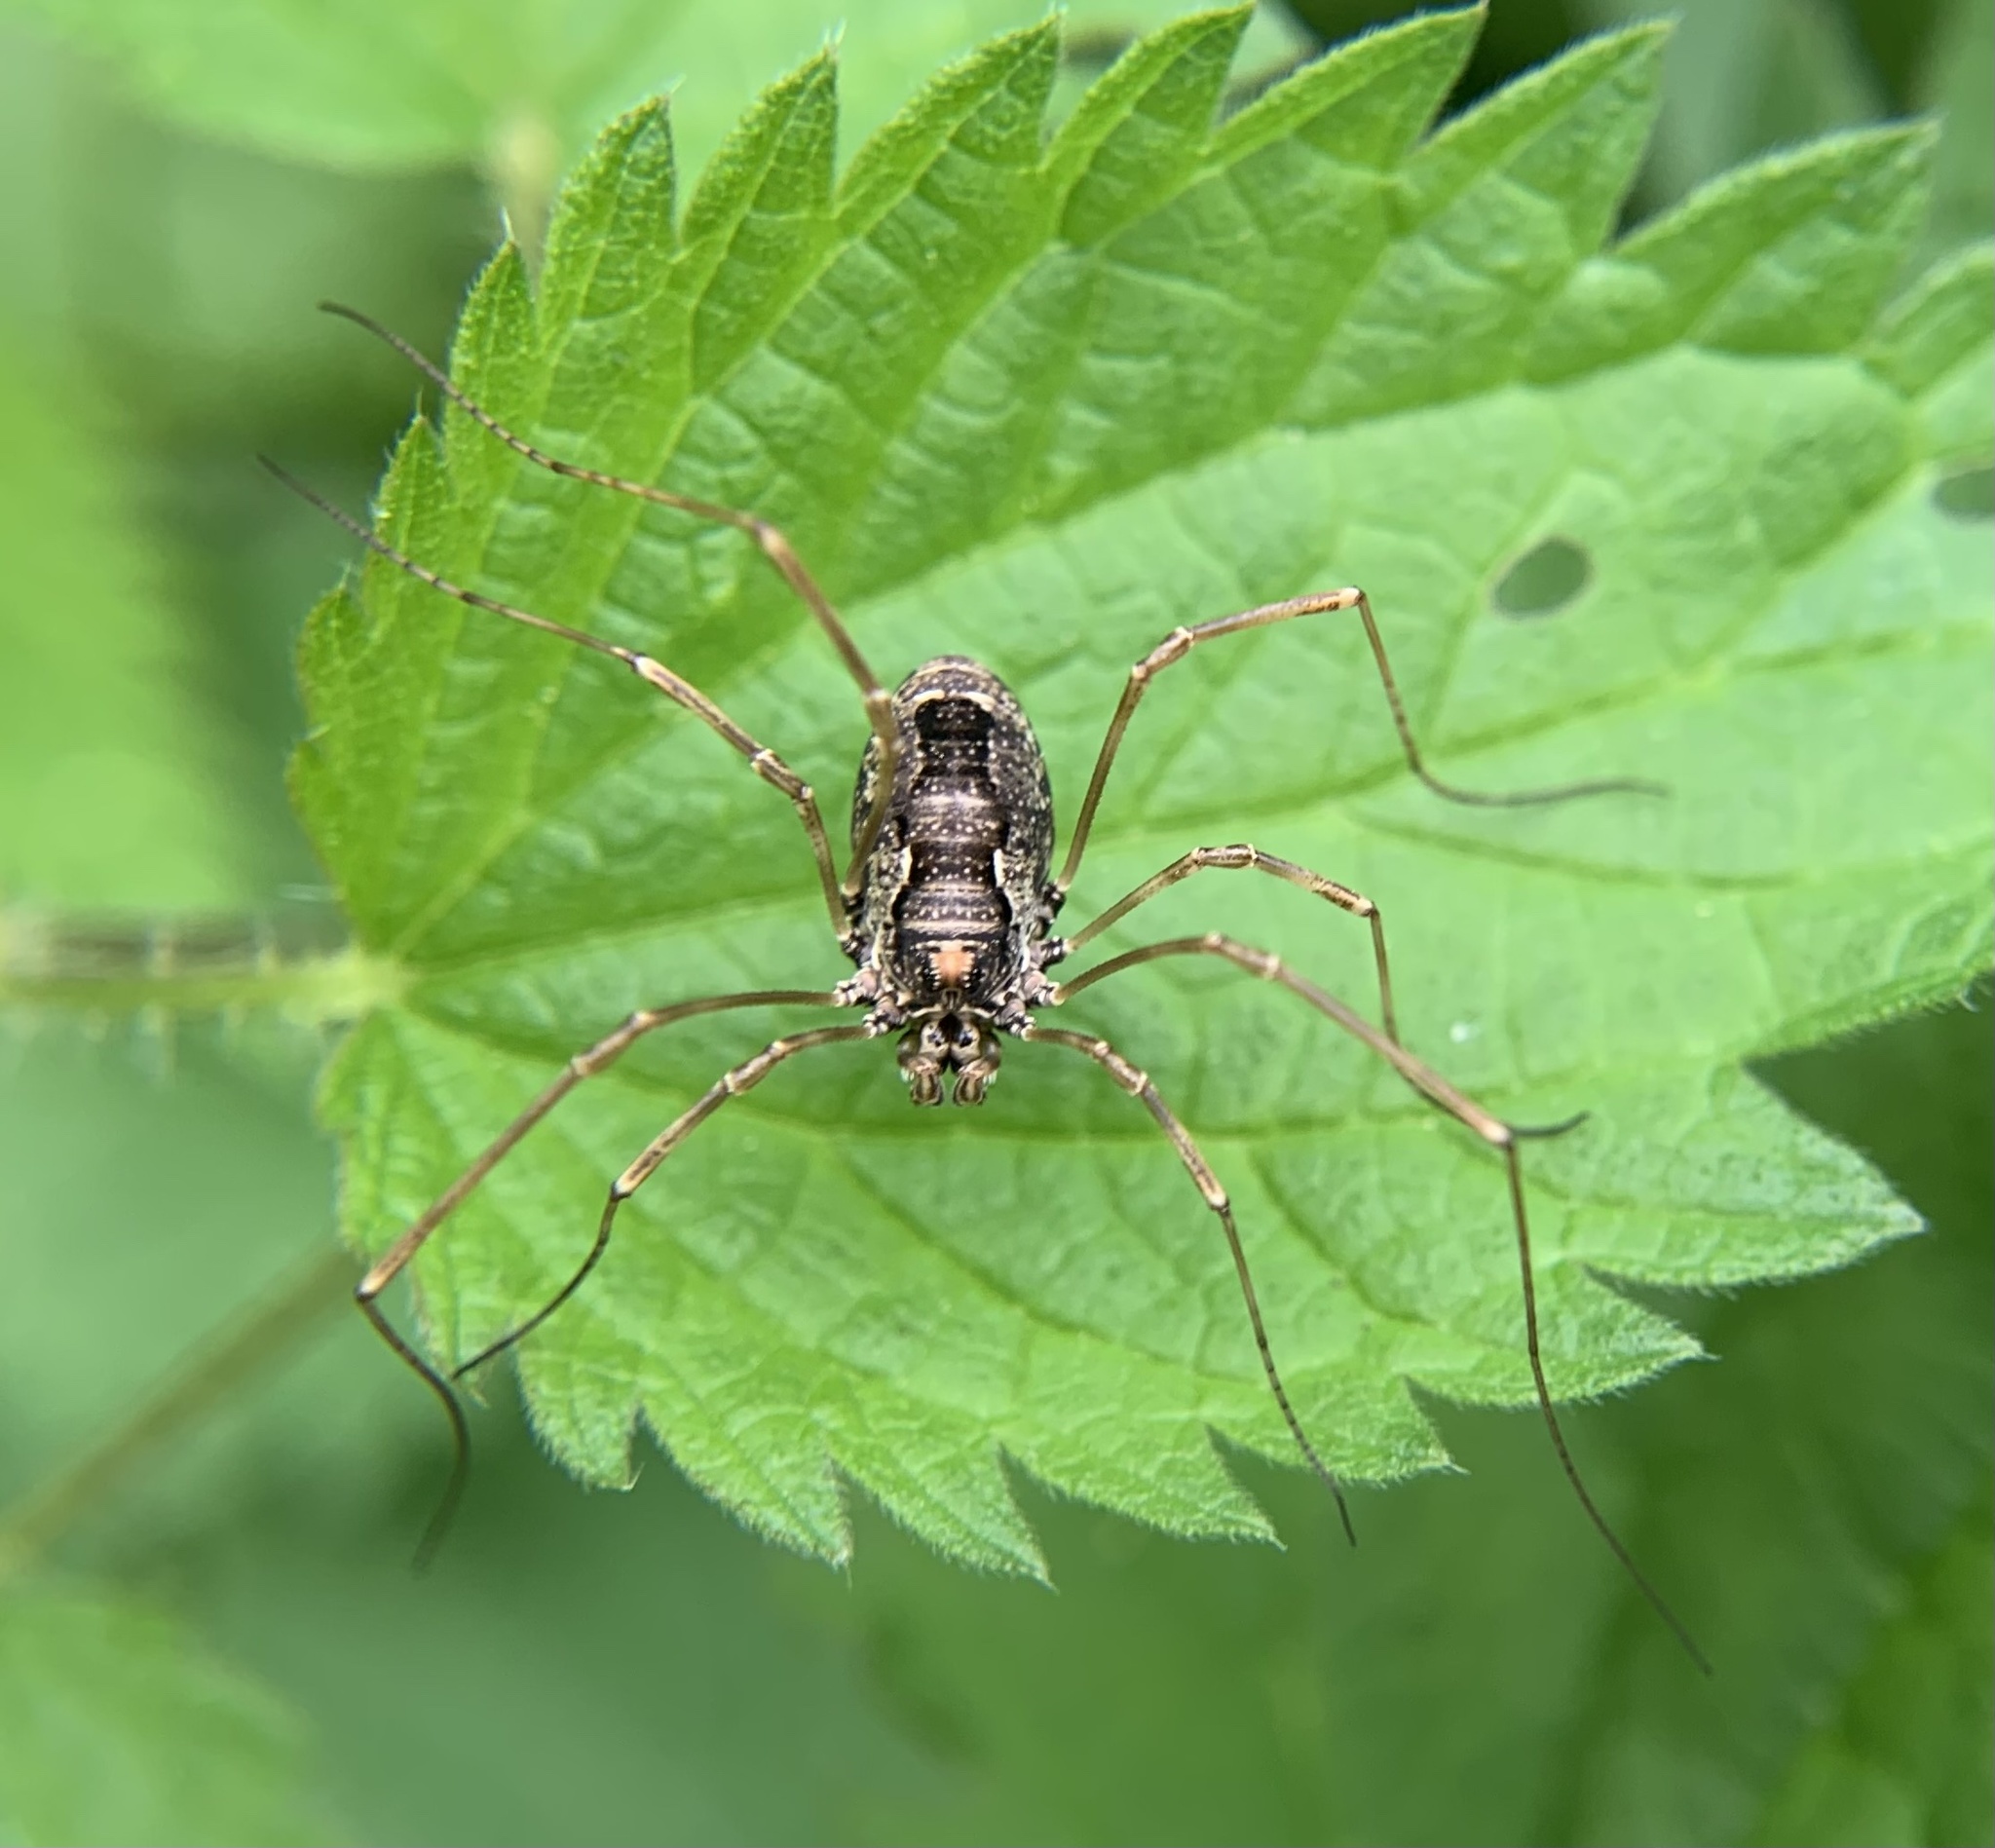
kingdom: Animalia
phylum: Arthropoda
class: Arachnida
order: Opiliones
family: Phalangiidae
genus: Platybunus
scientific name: Platybunus pinetorum
